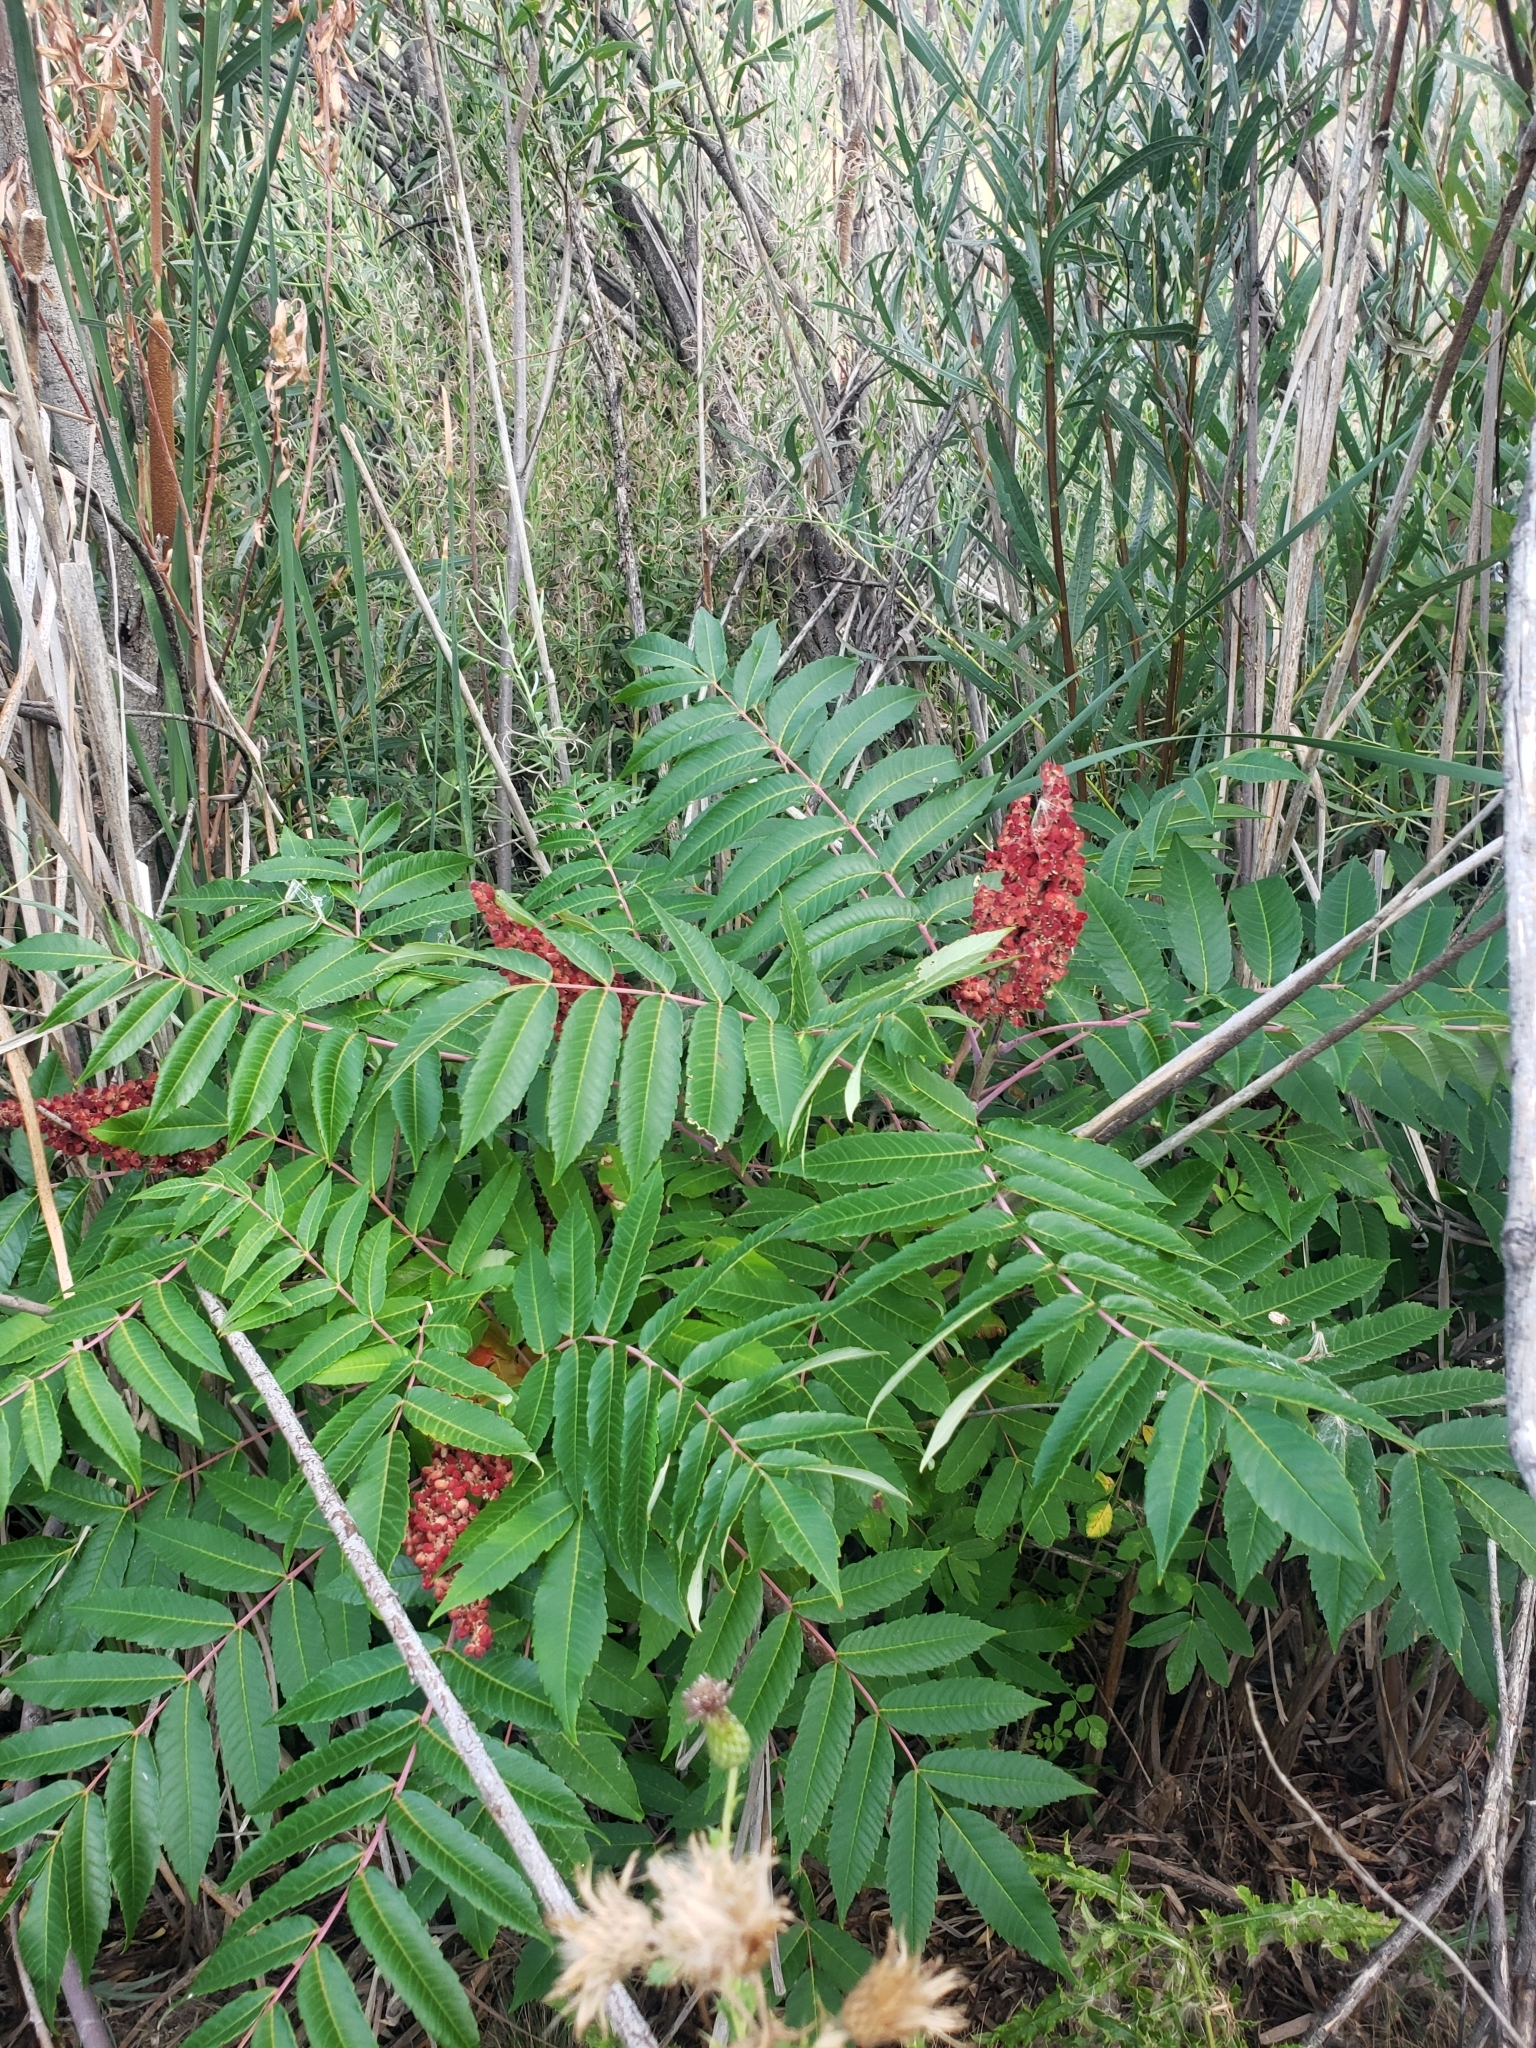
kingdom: Plantae
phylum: Tracheophyta
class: Magnoliopsida
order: Sapindales
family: Anacardiaceae
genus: Rhus
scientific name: Rhus glabra
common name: Scarlet sumac
